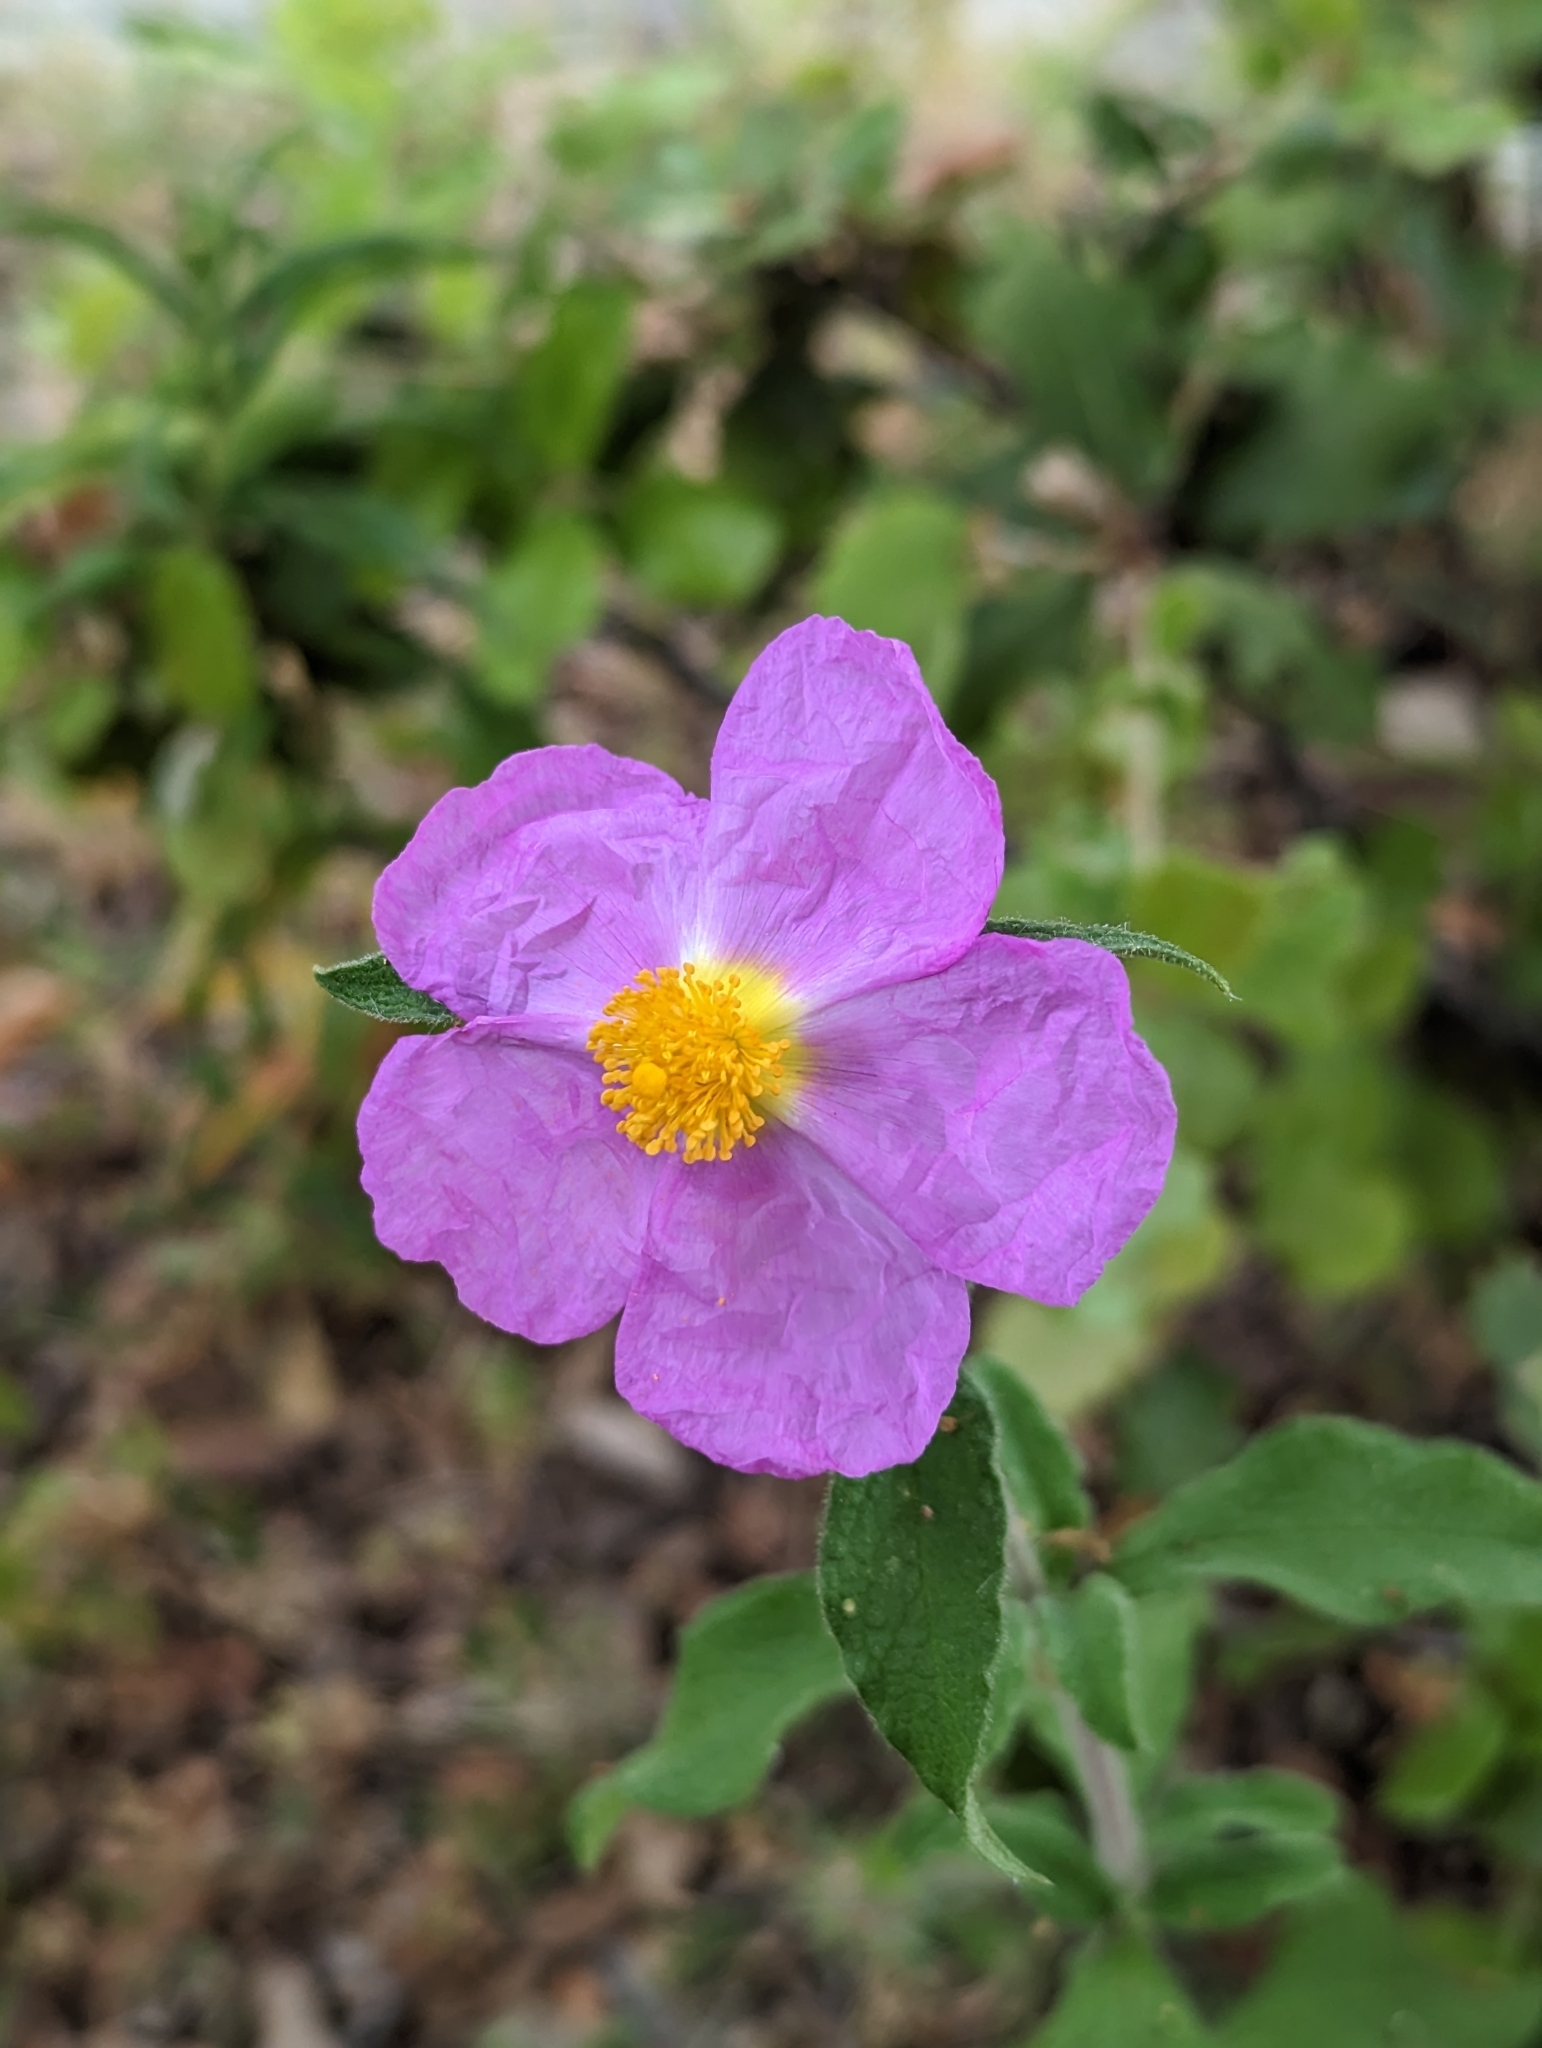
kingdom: Plantae
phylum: Tracheophyta
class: Magnoliopsida
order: Malvales
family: Cistaceae
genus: Cistus
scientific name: Cistus creticus
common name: Cretan rockrose
